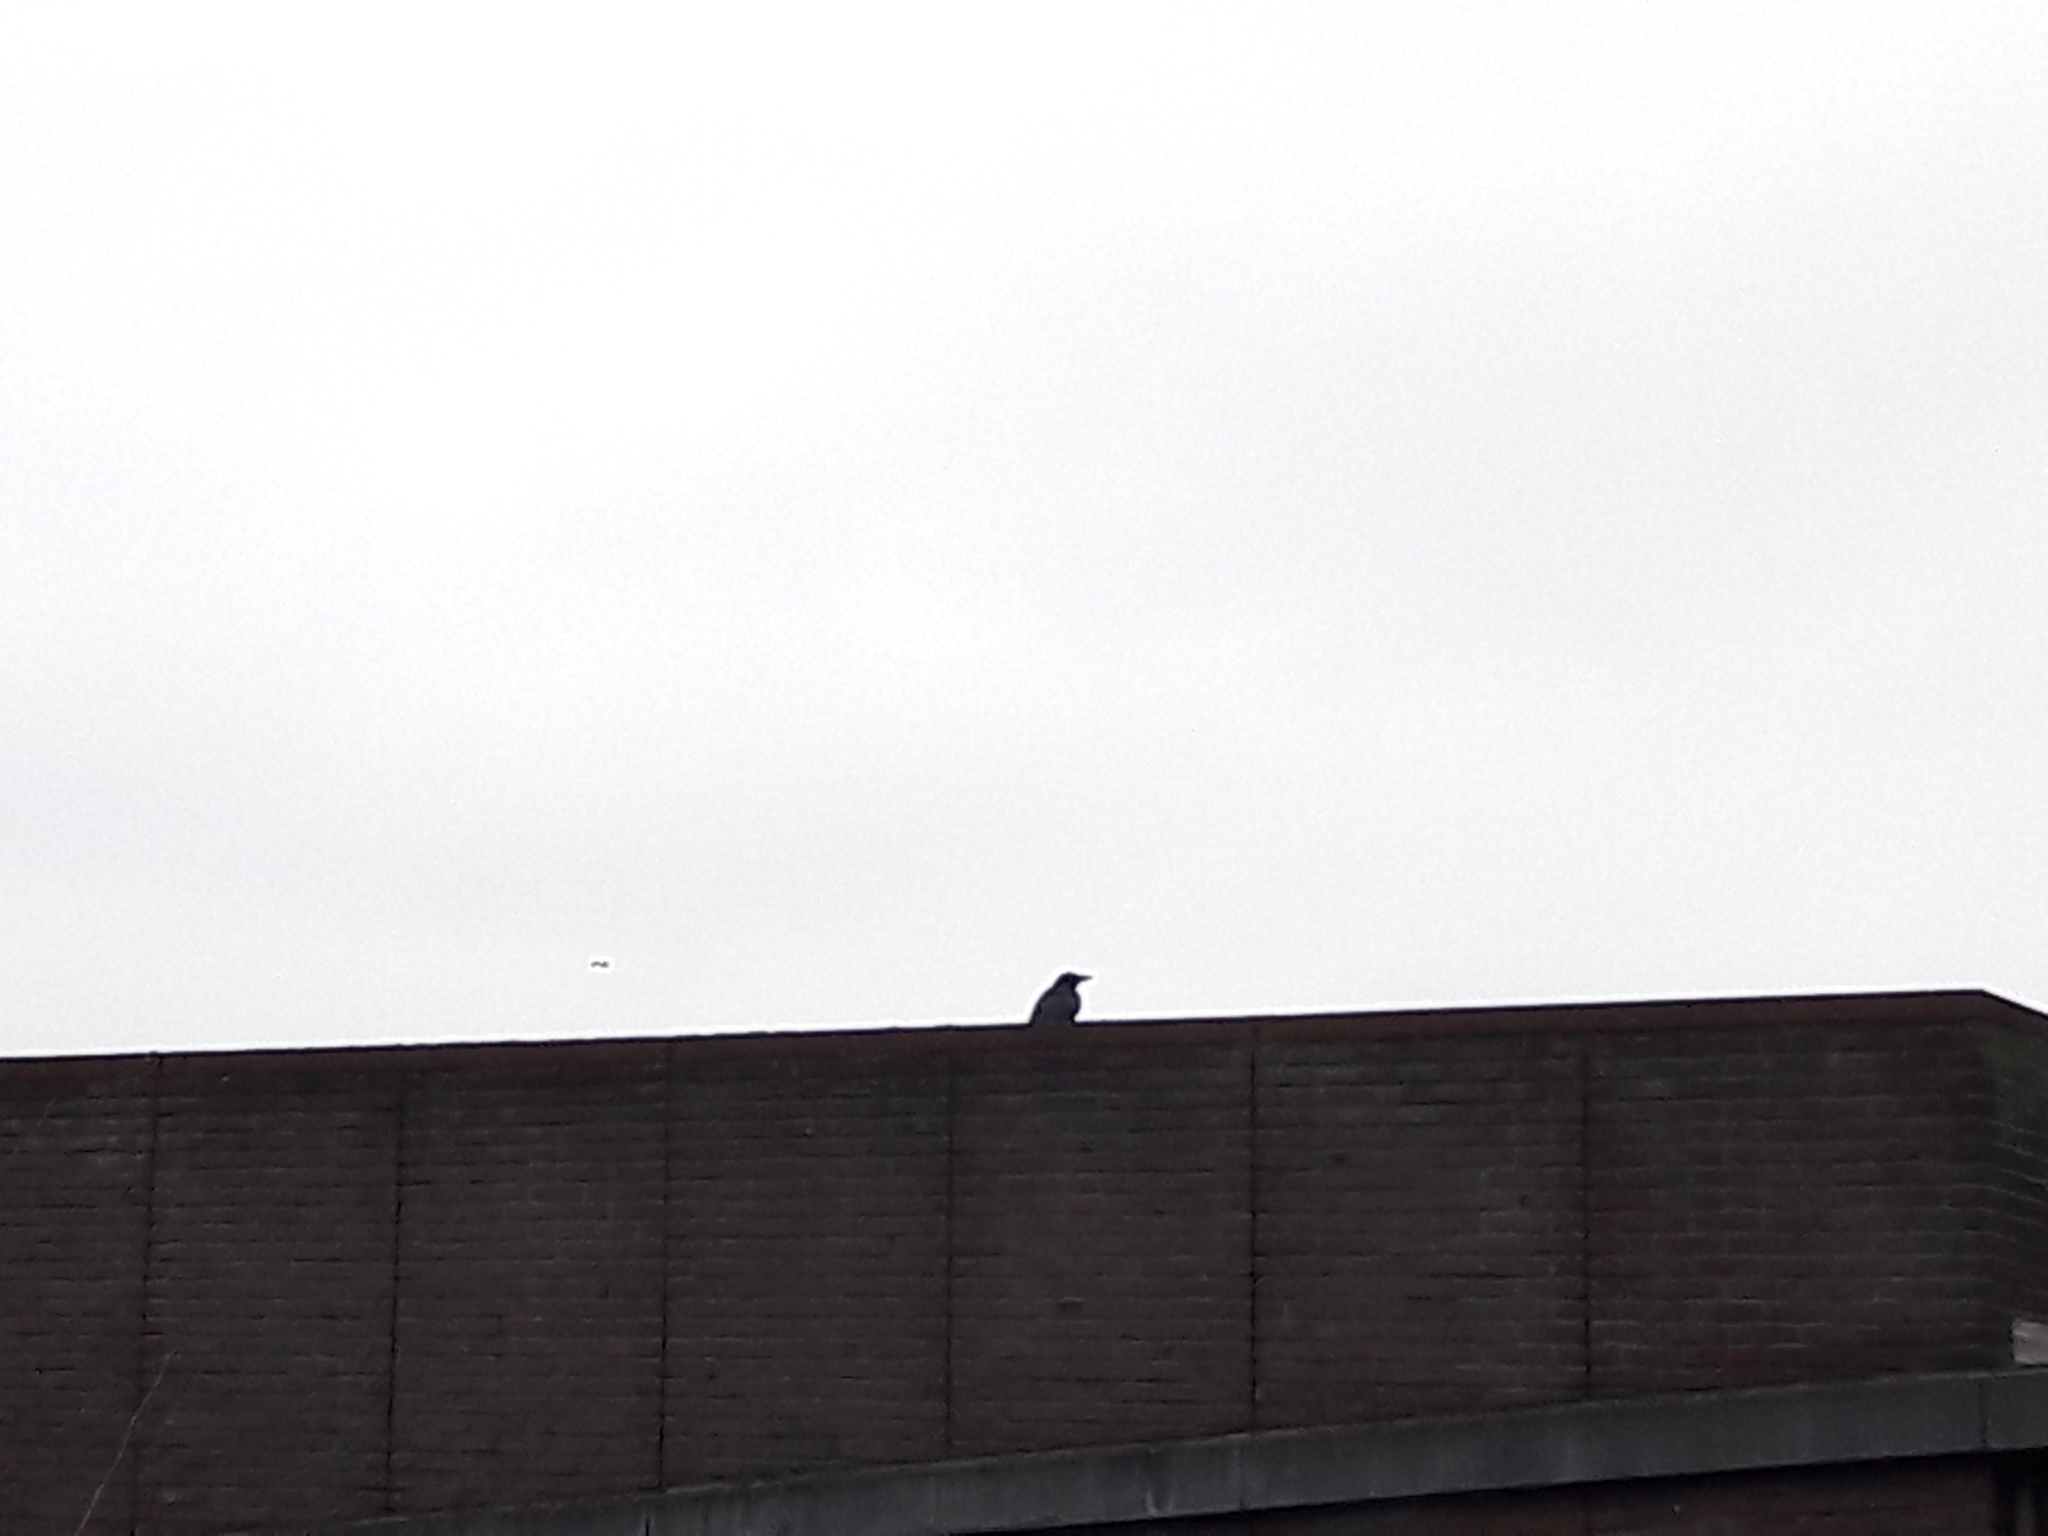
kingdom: Animalia
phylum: Chordata
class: Aves
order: Passeriformes
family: Corvidae
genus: Corvus
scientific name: Corvus corone
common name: Carrion crow
